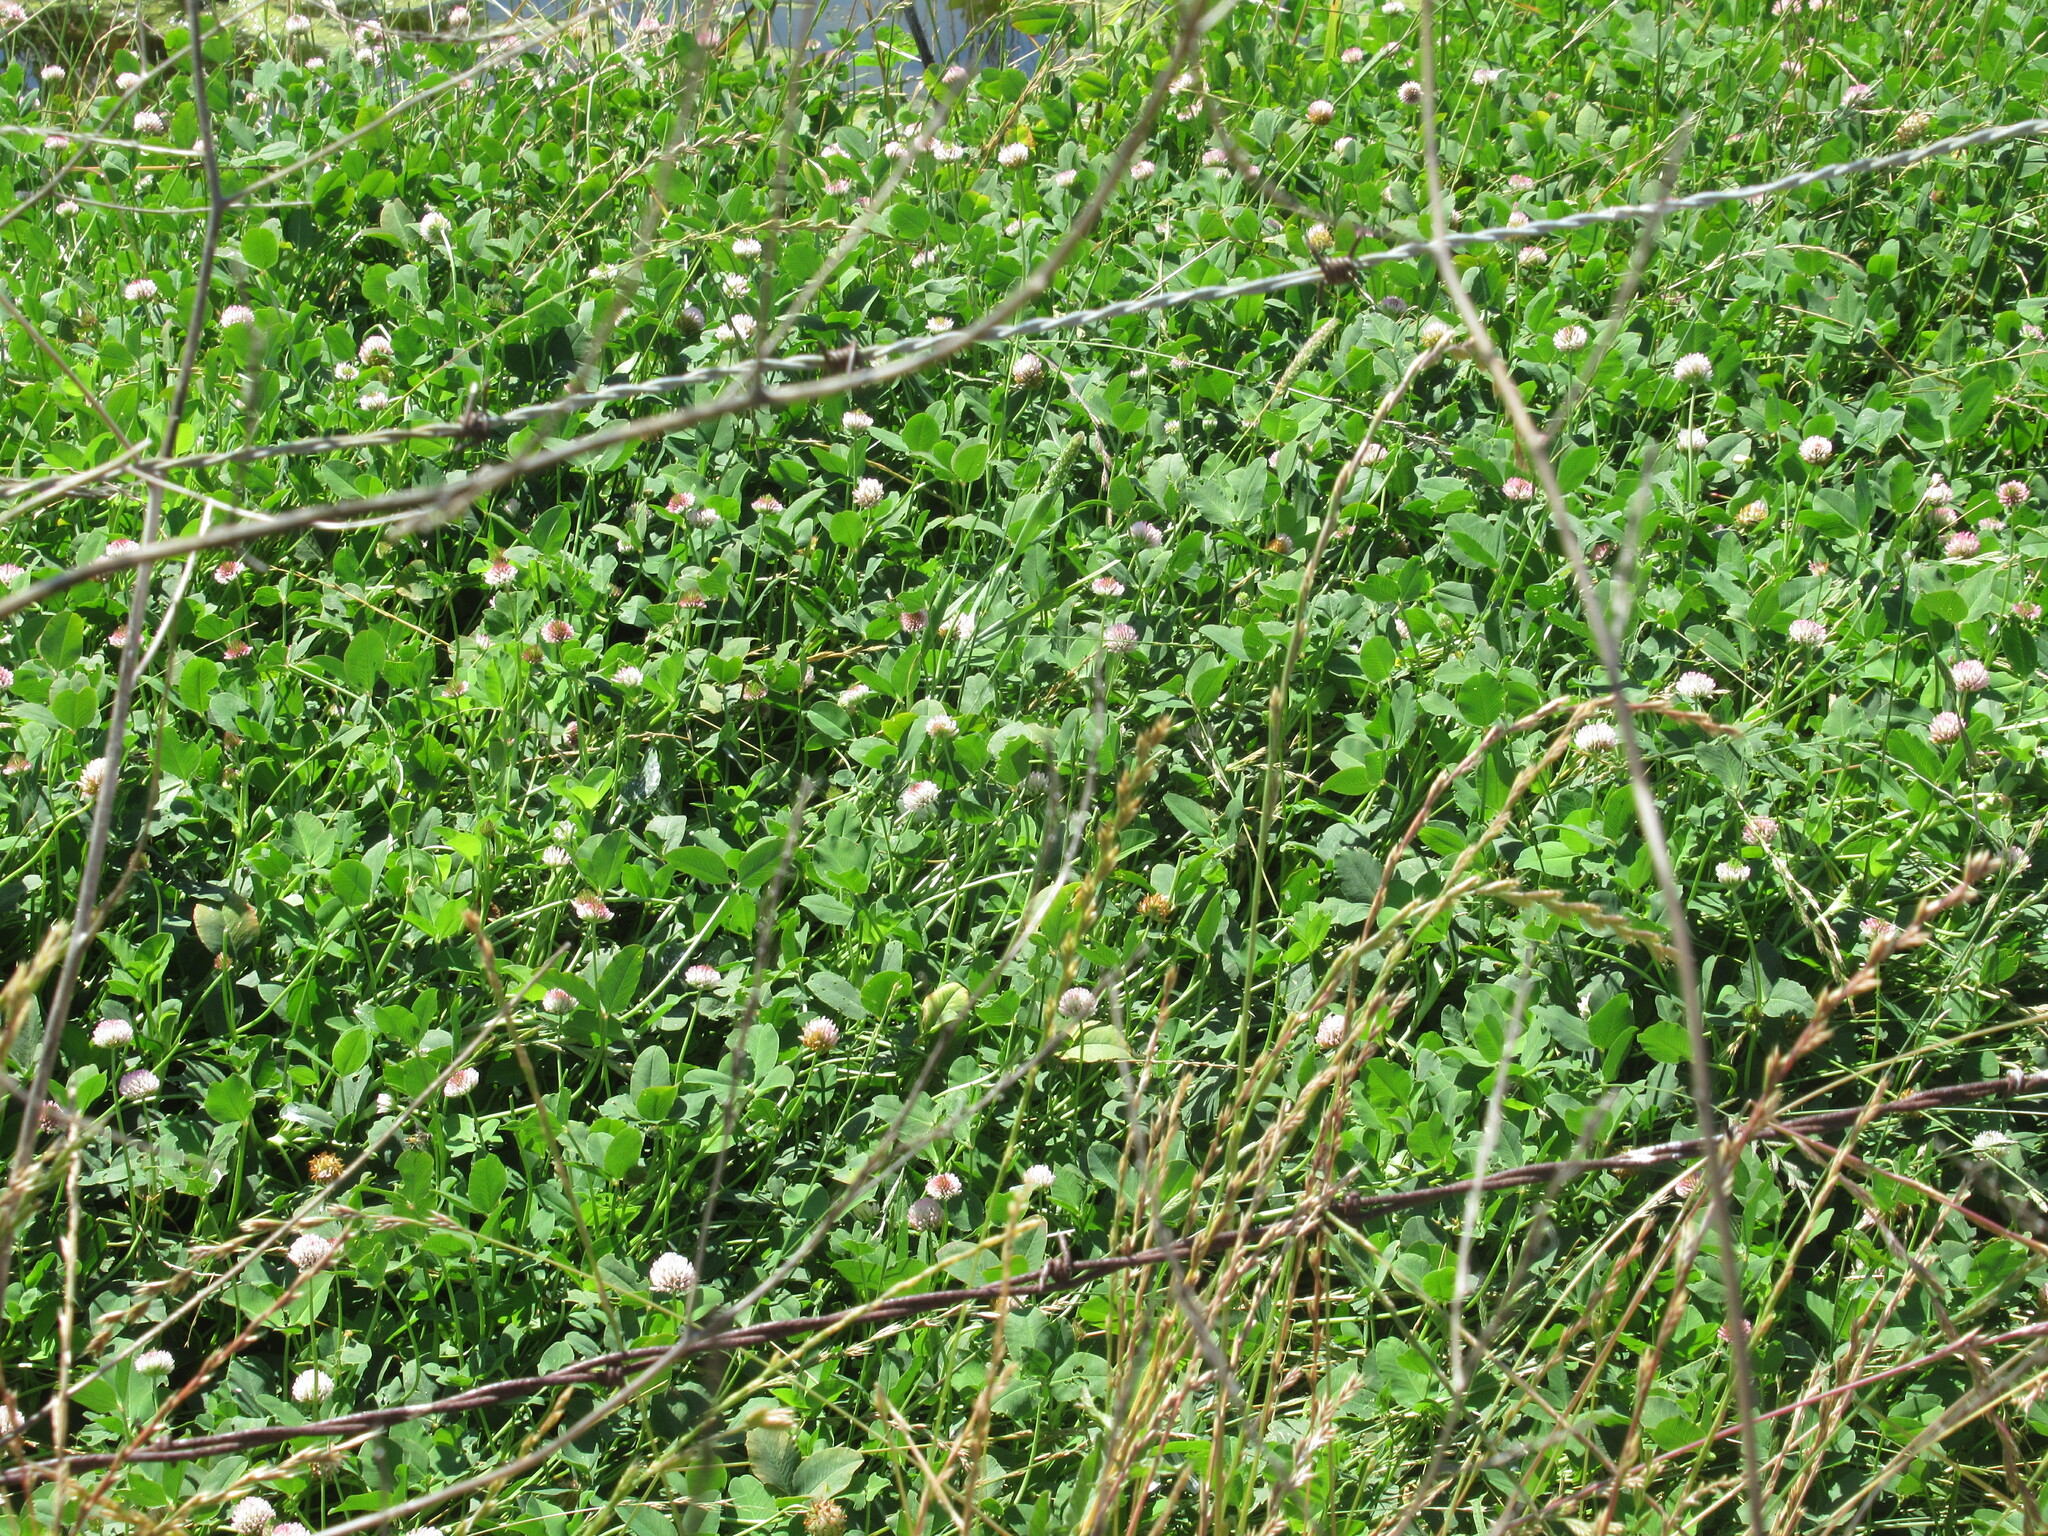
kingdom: Plantae
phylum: Tracheophyta
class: Magnoliopsida
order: Fabales
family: Fabaceae
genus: Trifolium
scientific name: Trifolium fragiferum
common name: Strawberry clover
